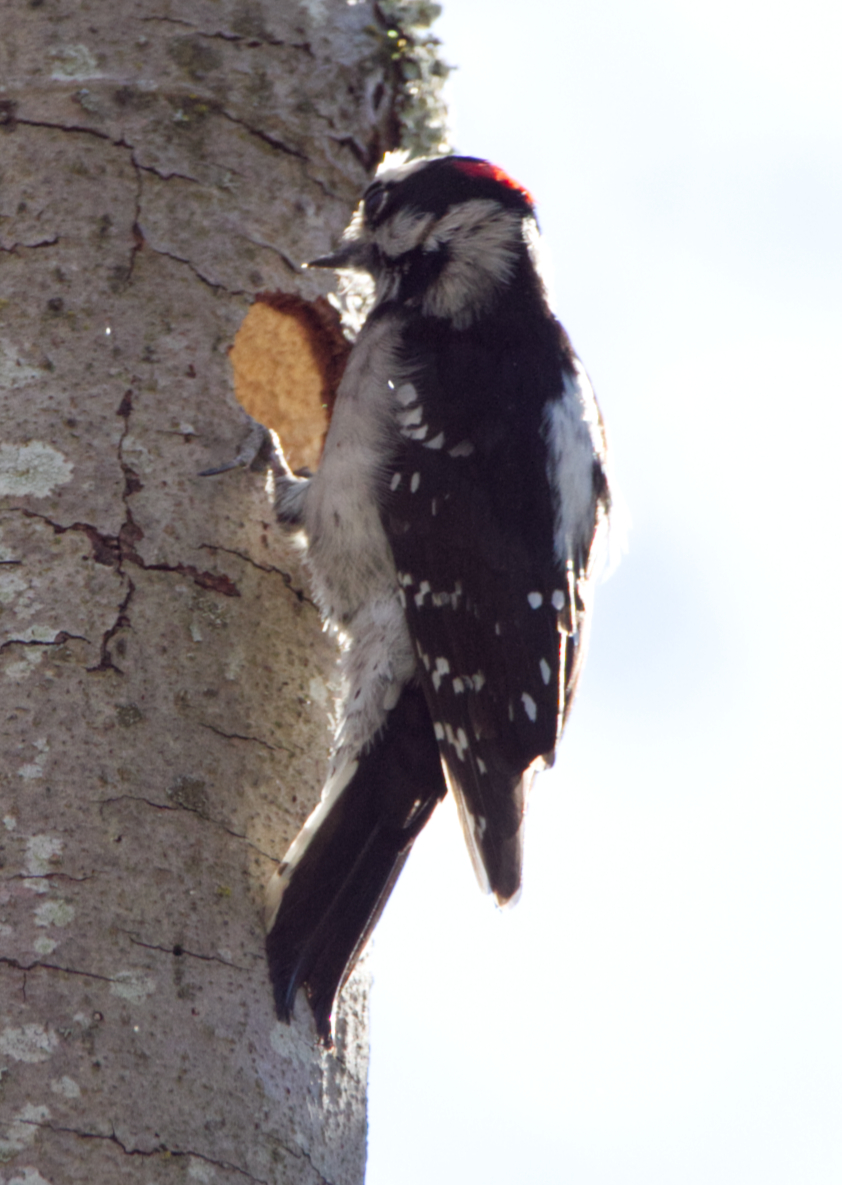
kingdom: Animalia
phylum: Chordata
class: Aves
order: Piciformes
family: Picidae
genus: Dryobates
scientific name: Dryobates pubescens
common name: Downy woodpecker
